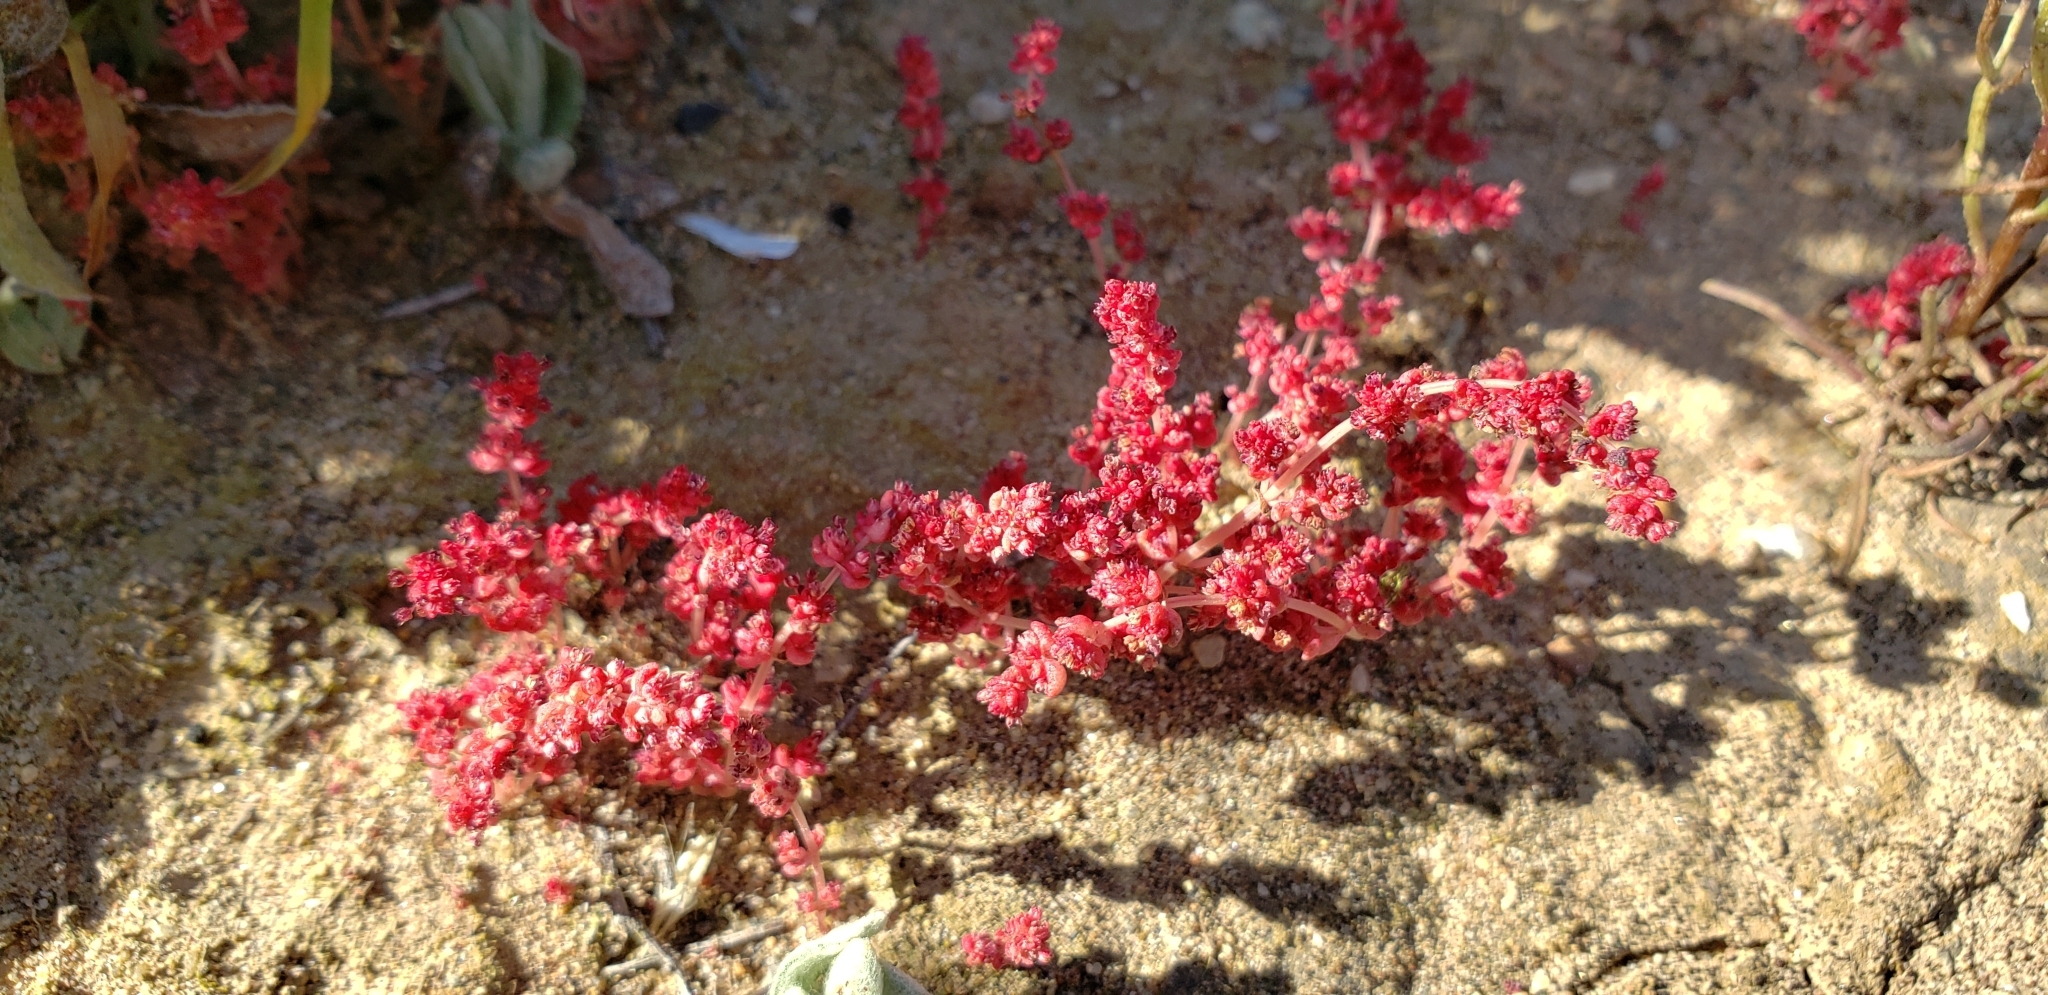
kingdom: Plantae
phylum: Tracheophyta
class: Magnoliopsida
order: Saxifragales
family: Crassulaceae
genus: Crassula
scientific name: Crassula connata
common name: Erect pygmyweed
